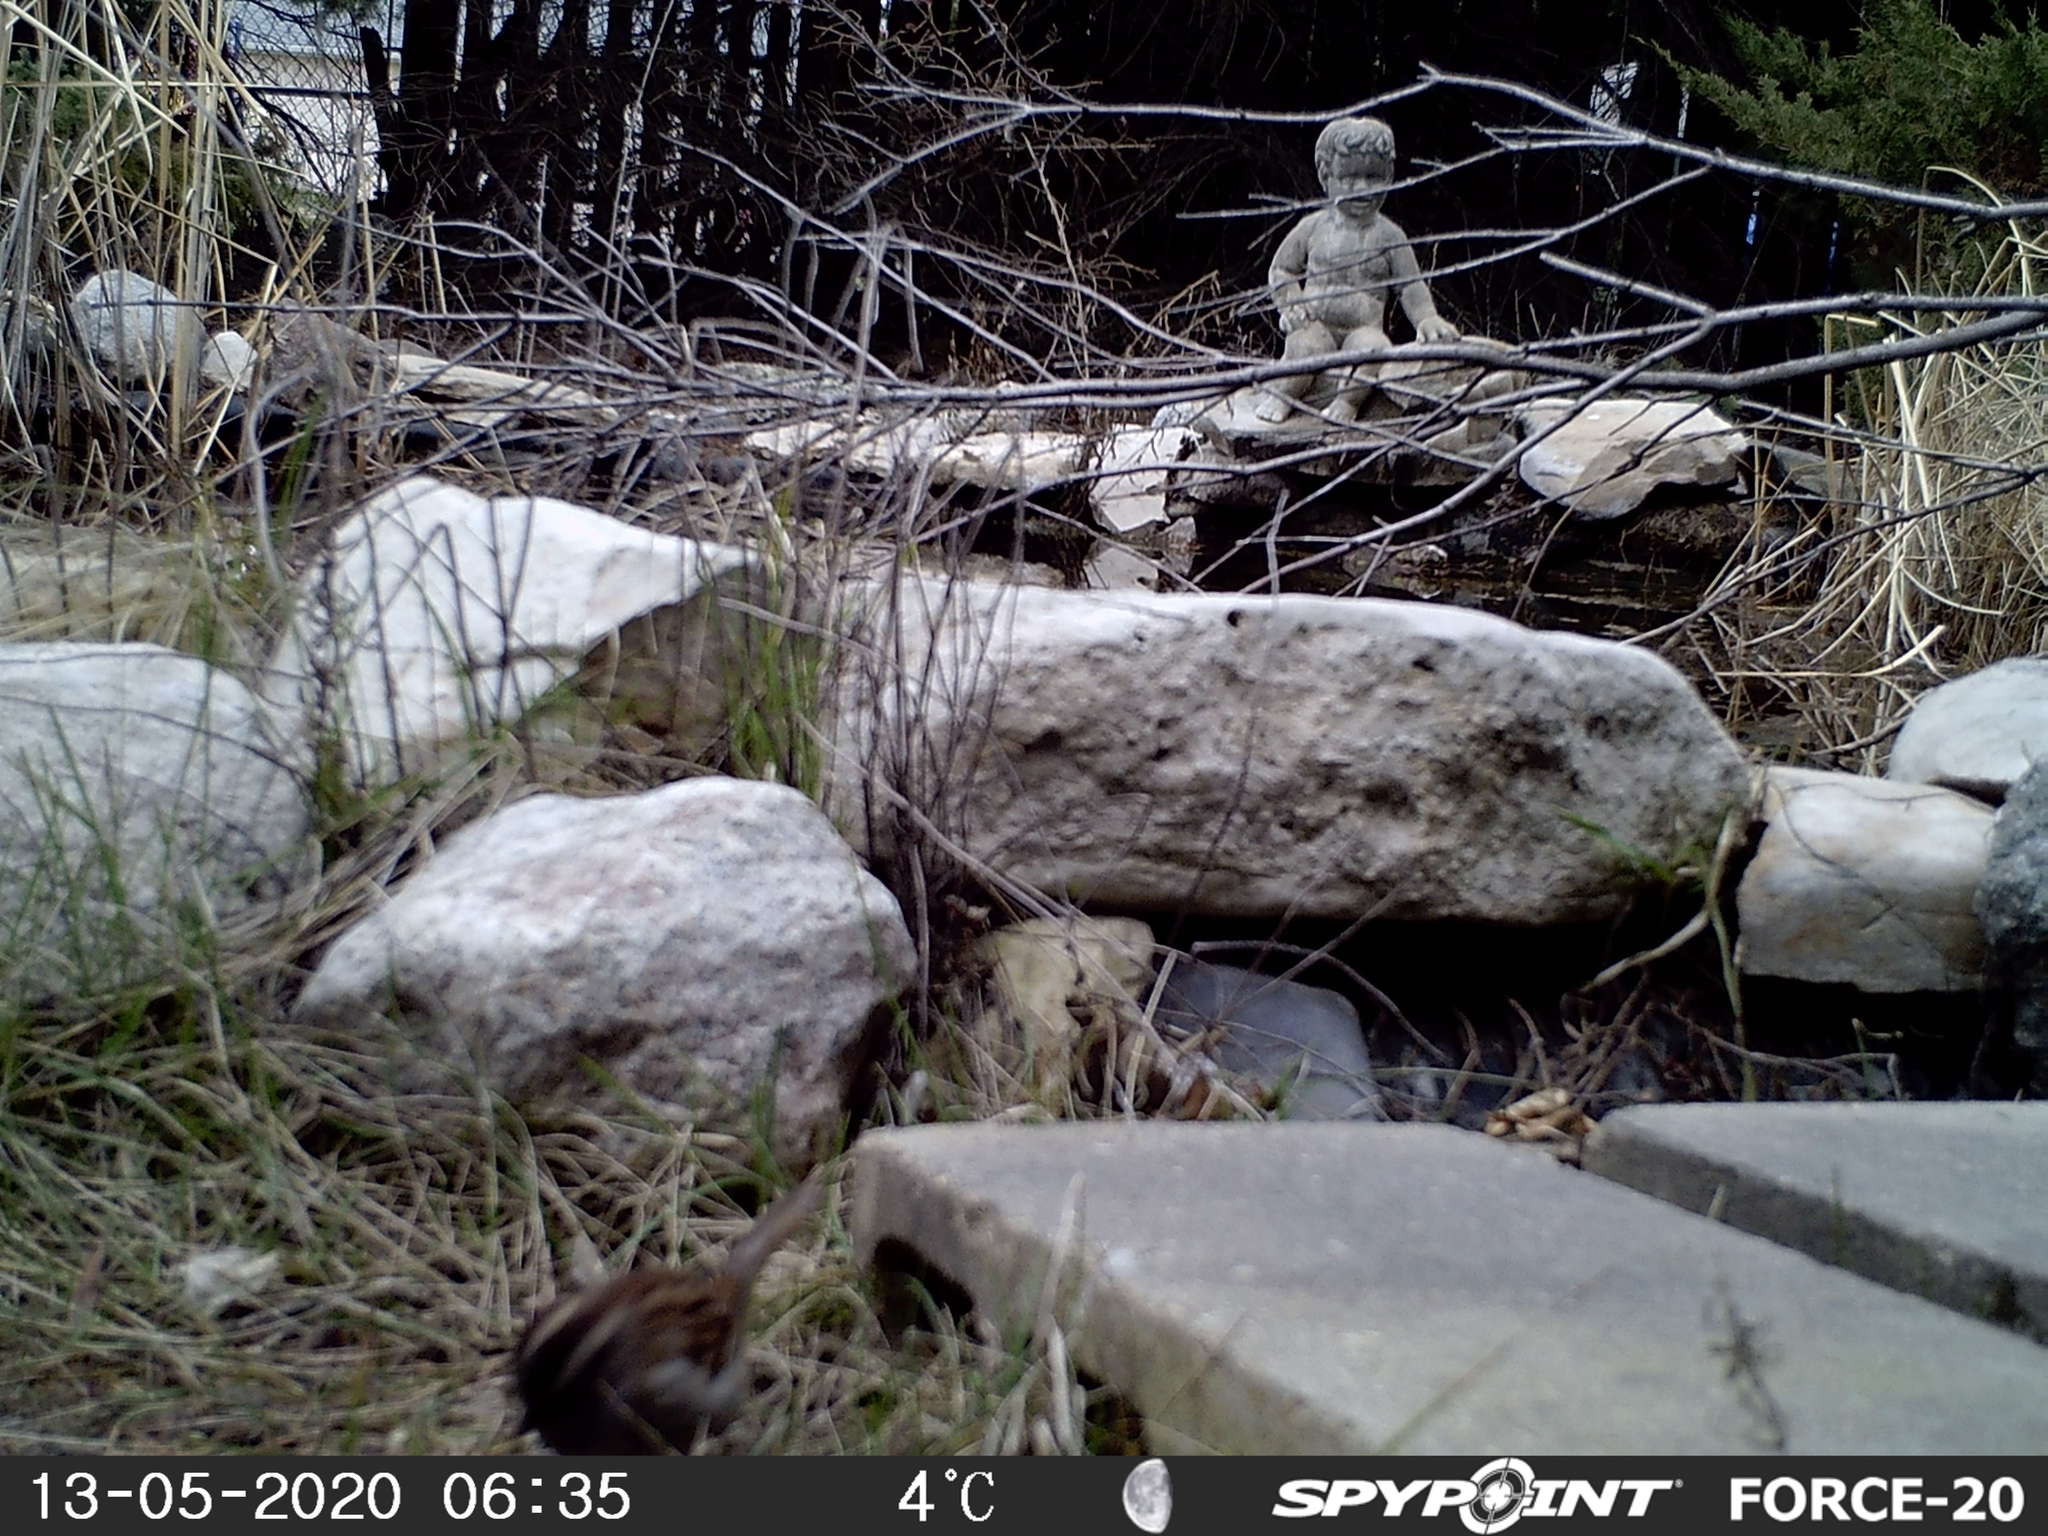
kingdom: Animalia
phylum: Chordata
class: Aves
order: Passeriformes
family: Passerellidae
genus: Zonotrichia
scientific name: Zonotrichia albicollis
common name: White-throated sparrow
